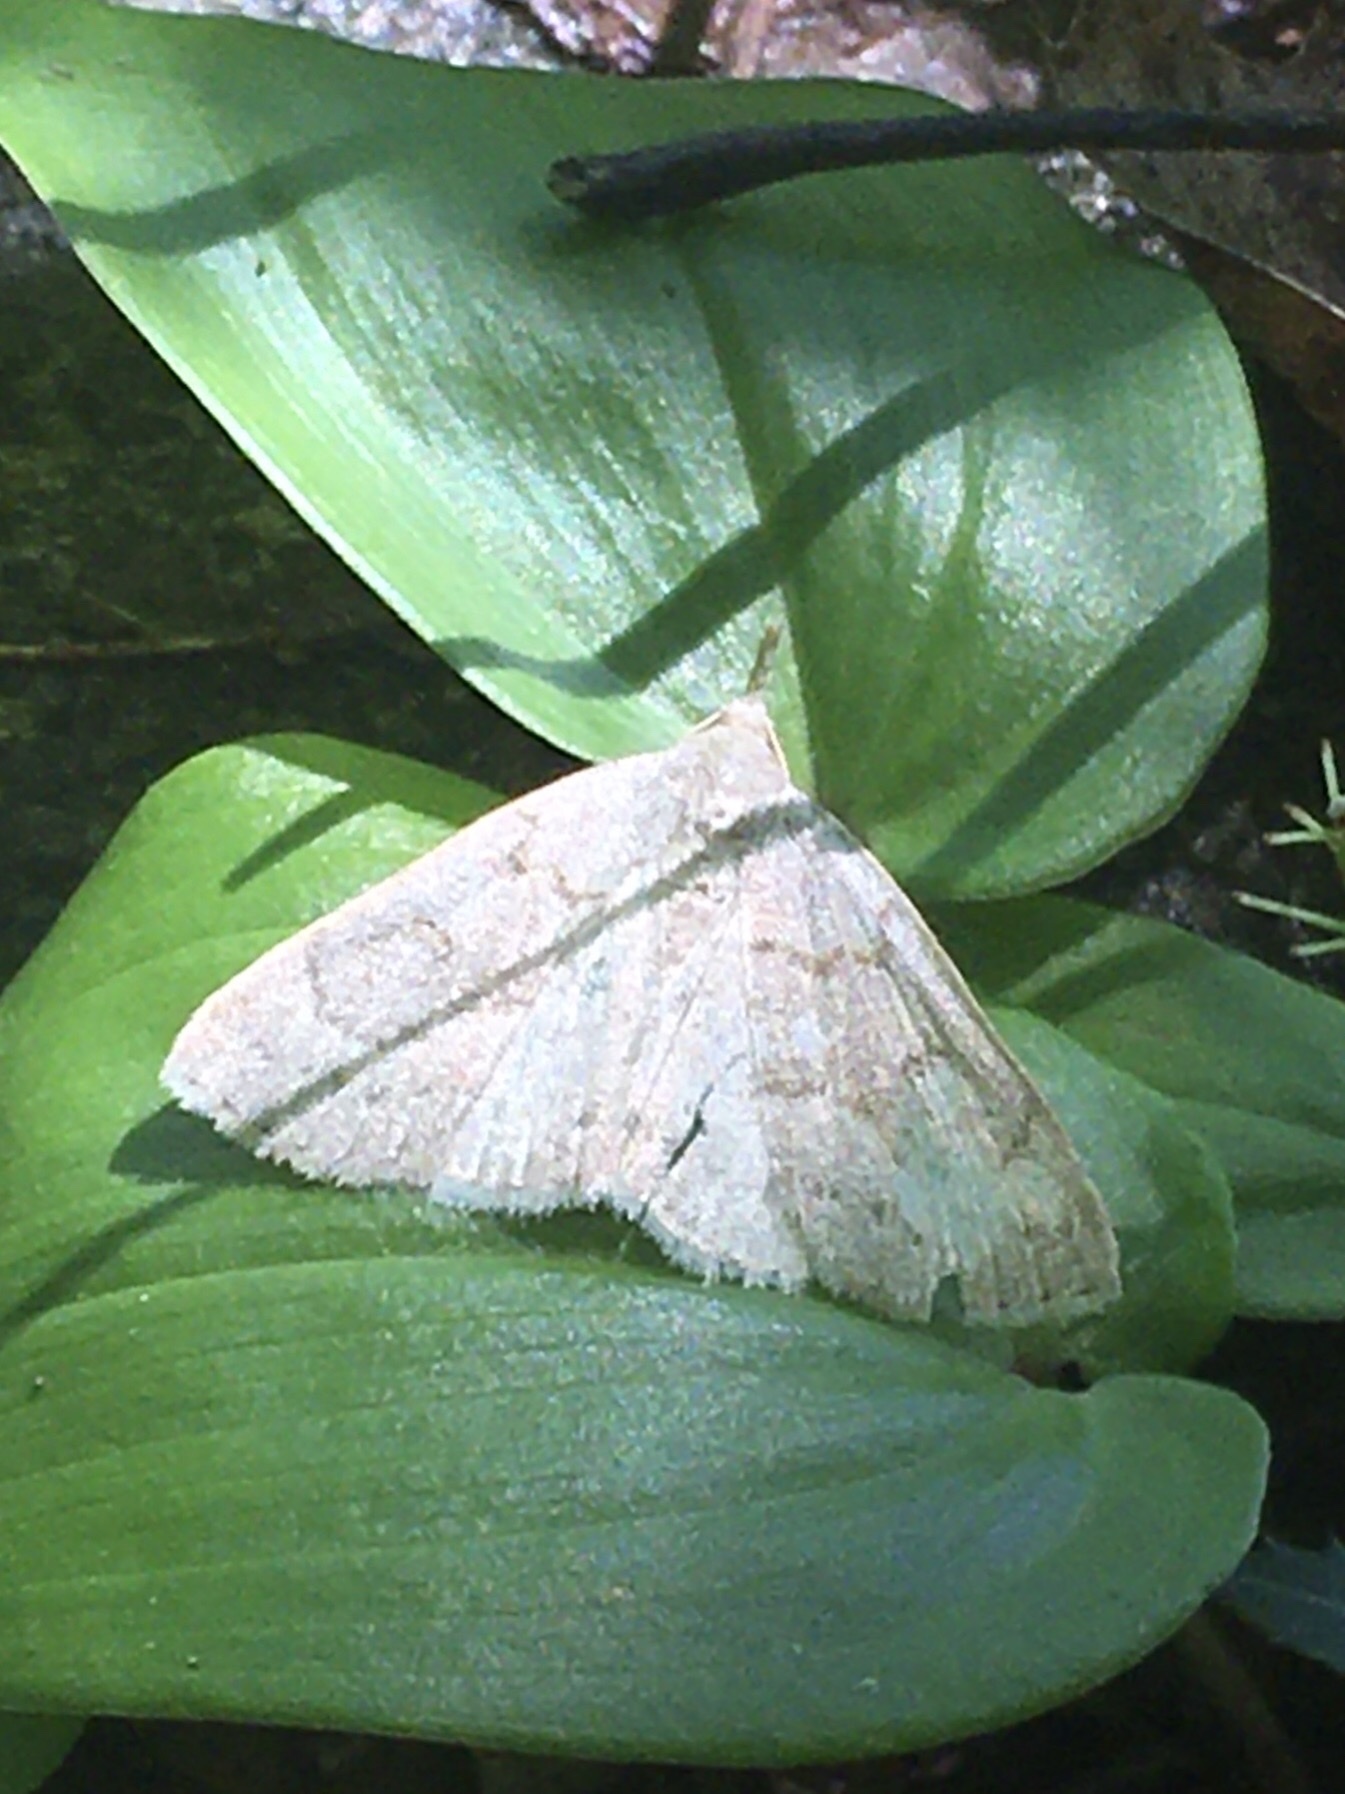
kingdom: Animalia
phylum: Arthropoda
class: Insecta
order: Lepidoptera
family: Erebidae
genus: Macrochilo
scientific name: Macrochilo morbidalis
